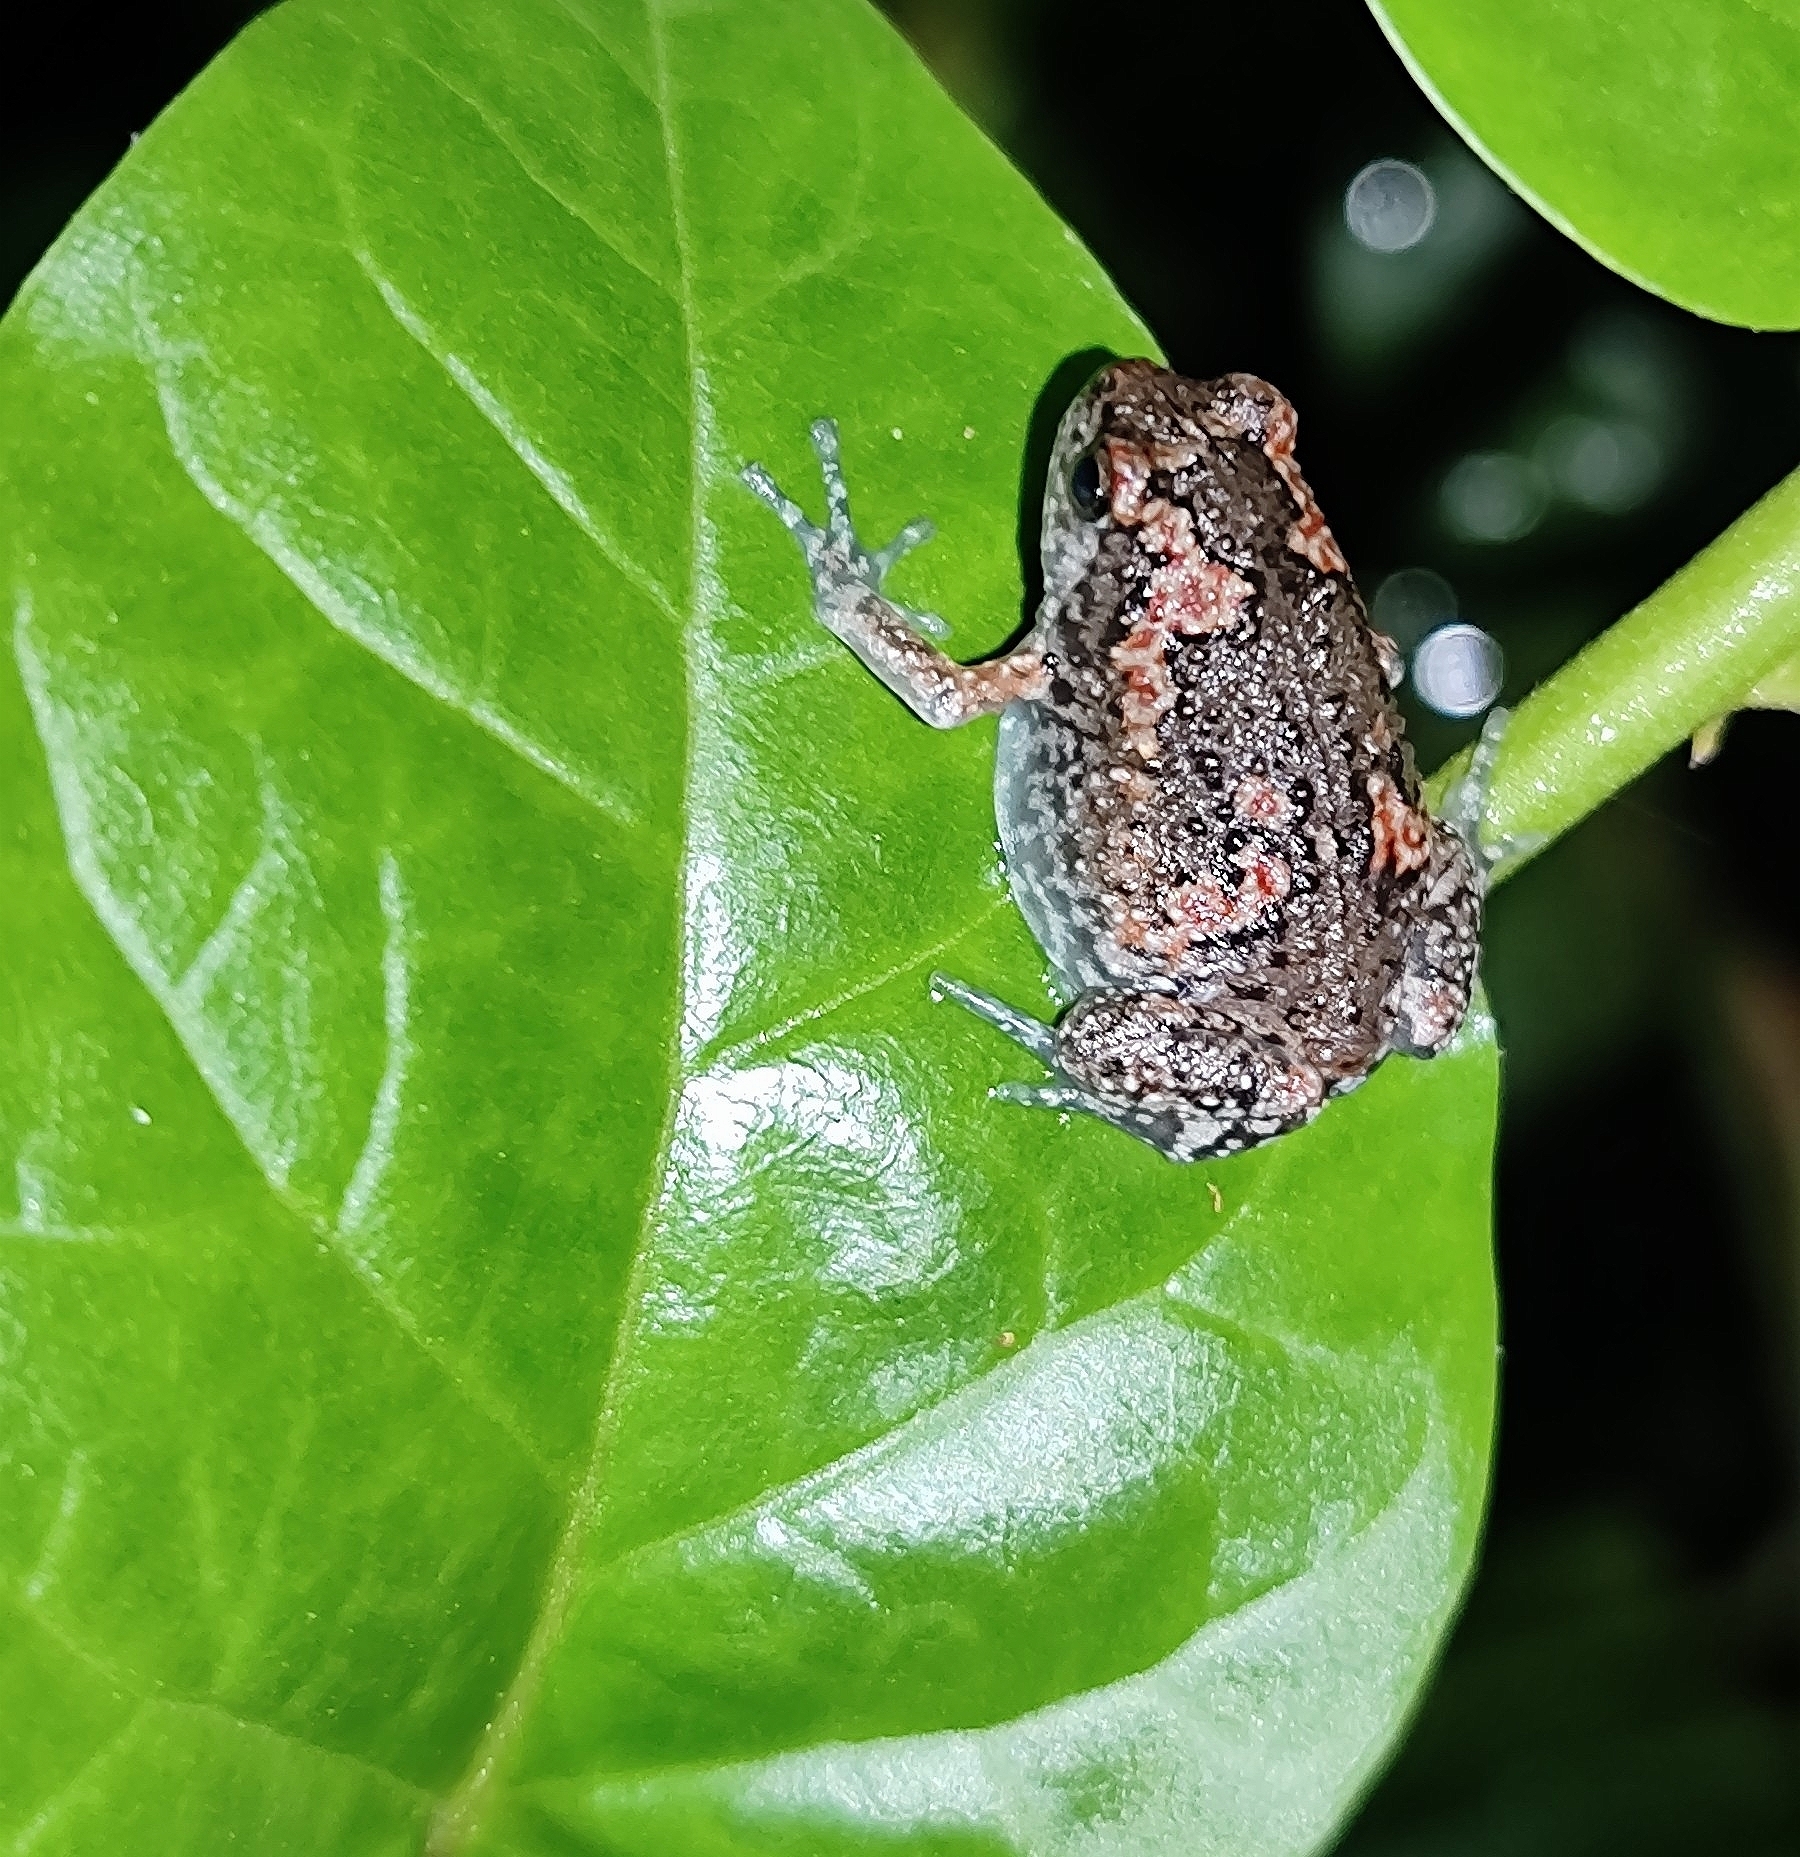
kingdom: Animalia
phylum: Chordata
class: Amphibia
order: Anura
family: Microhylidae
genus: Uperodon
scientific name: Uperodon taprobanicus
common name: Ceylon kaloula
